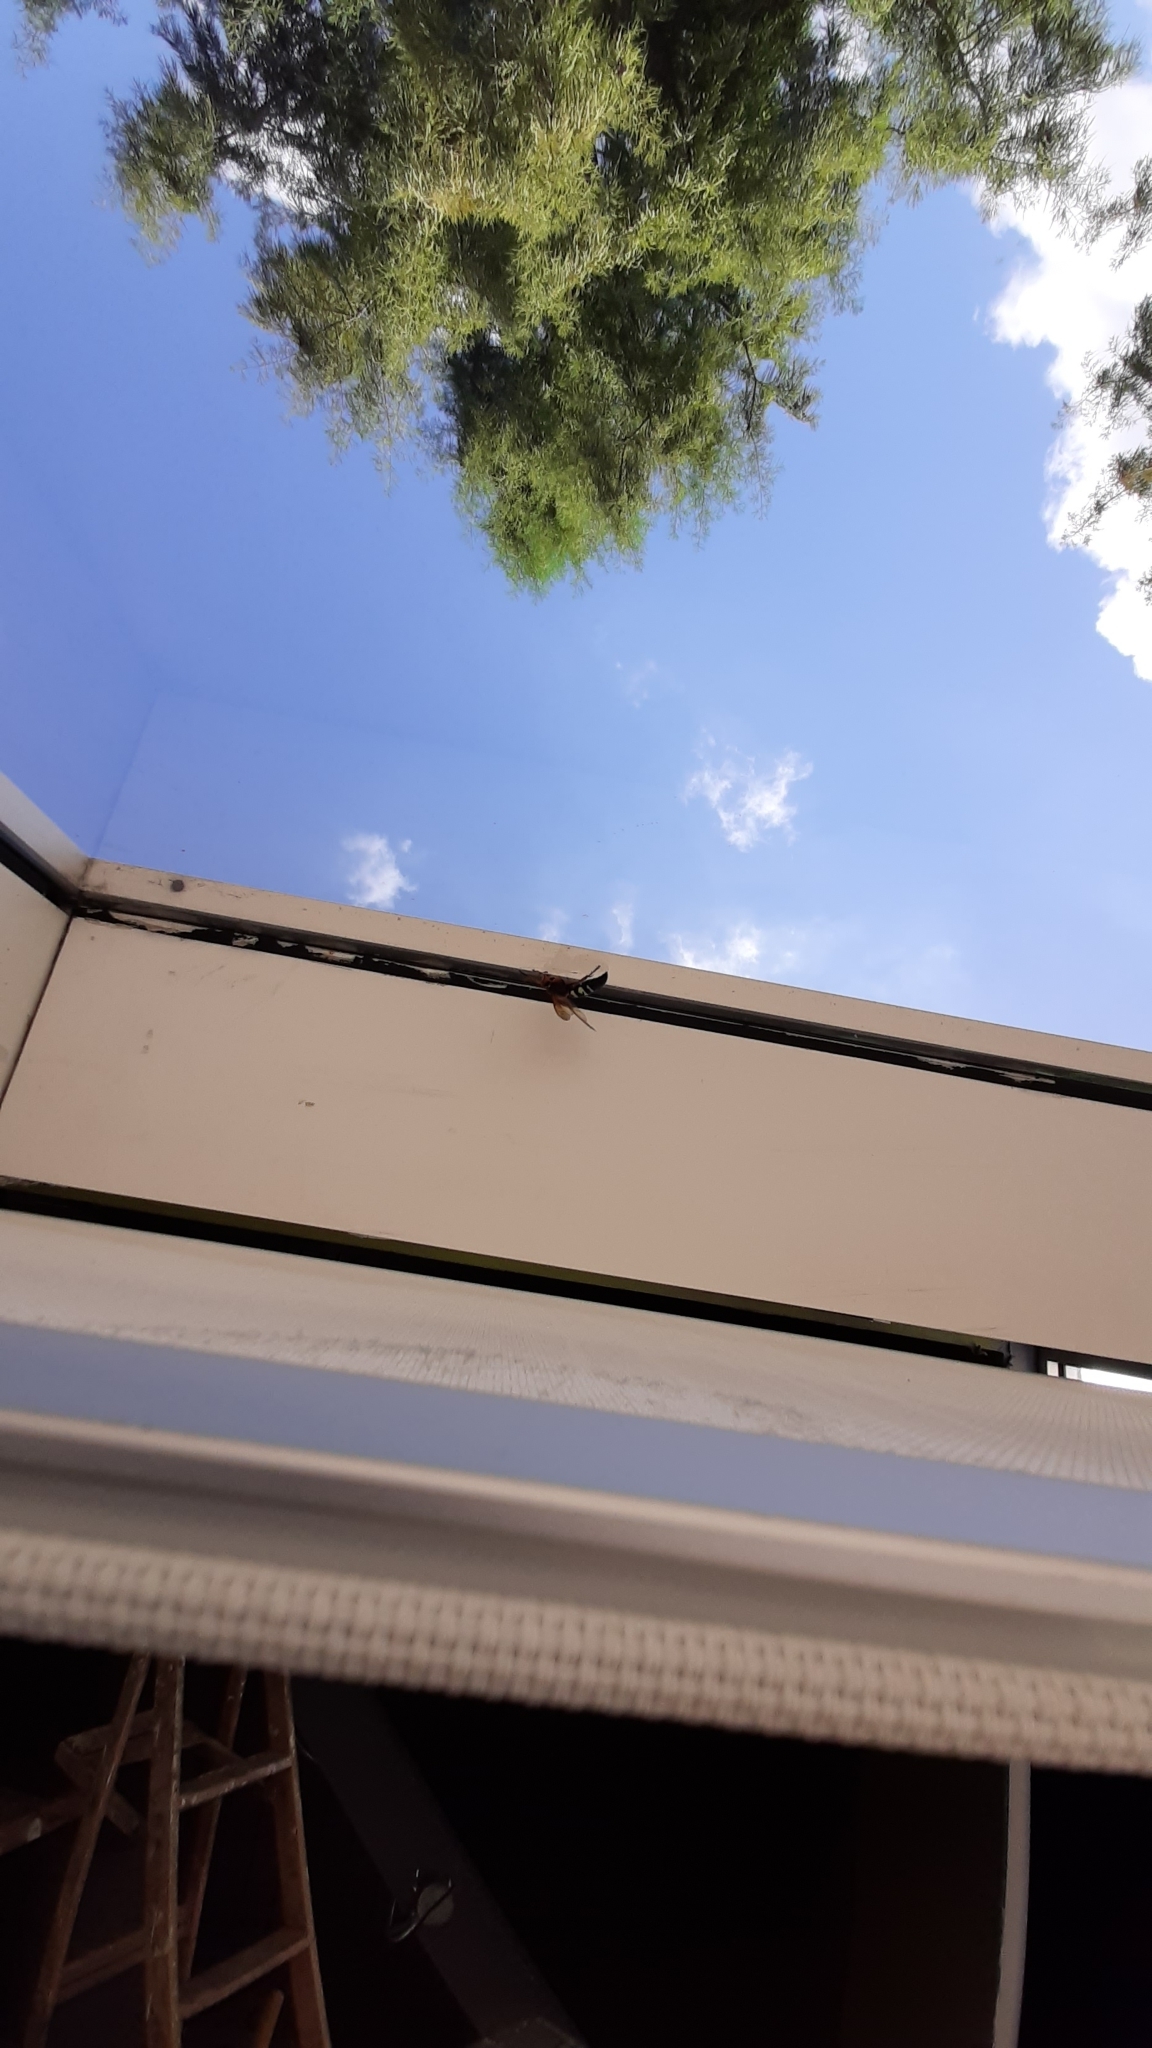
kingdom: Animalia
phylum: Arthropoda
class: Insecta
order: Hymenoptera
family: Crabronidae
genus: Sphecius
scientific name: Sphecius speciosus
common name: Cicada killer
